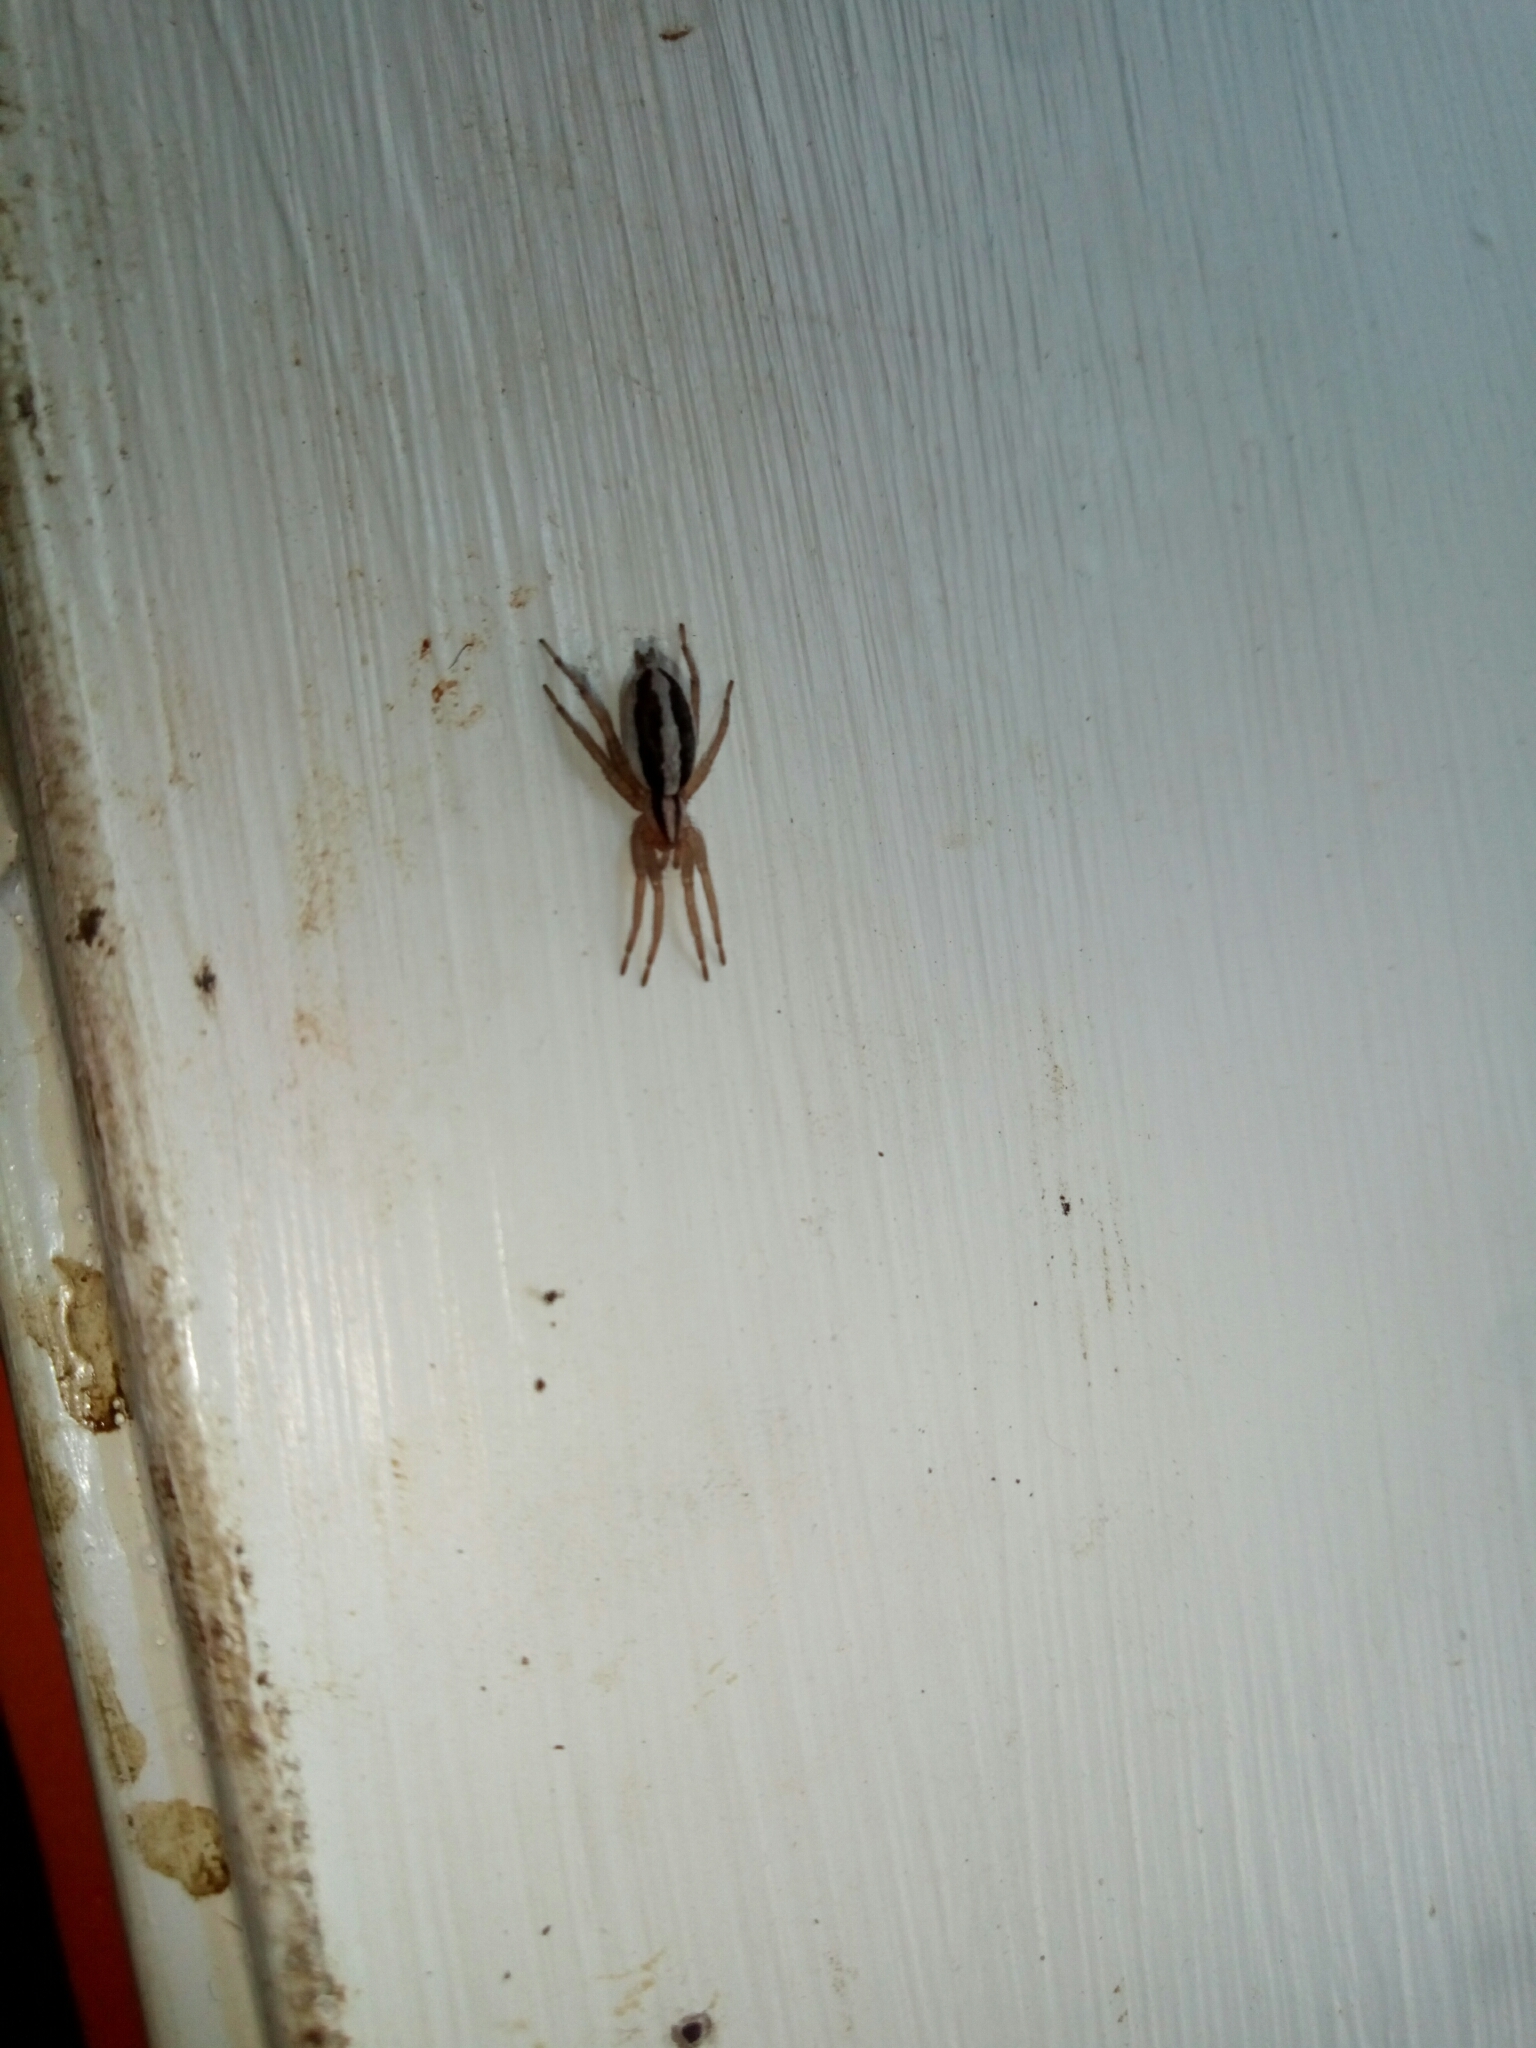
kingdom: Animalia
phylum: Arthropoda
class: Arachnida
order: Araneae
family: Gnaphosidae
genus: Cesonia
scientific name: Cesonia bilineata
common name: Two-lined stealthy ground spider
